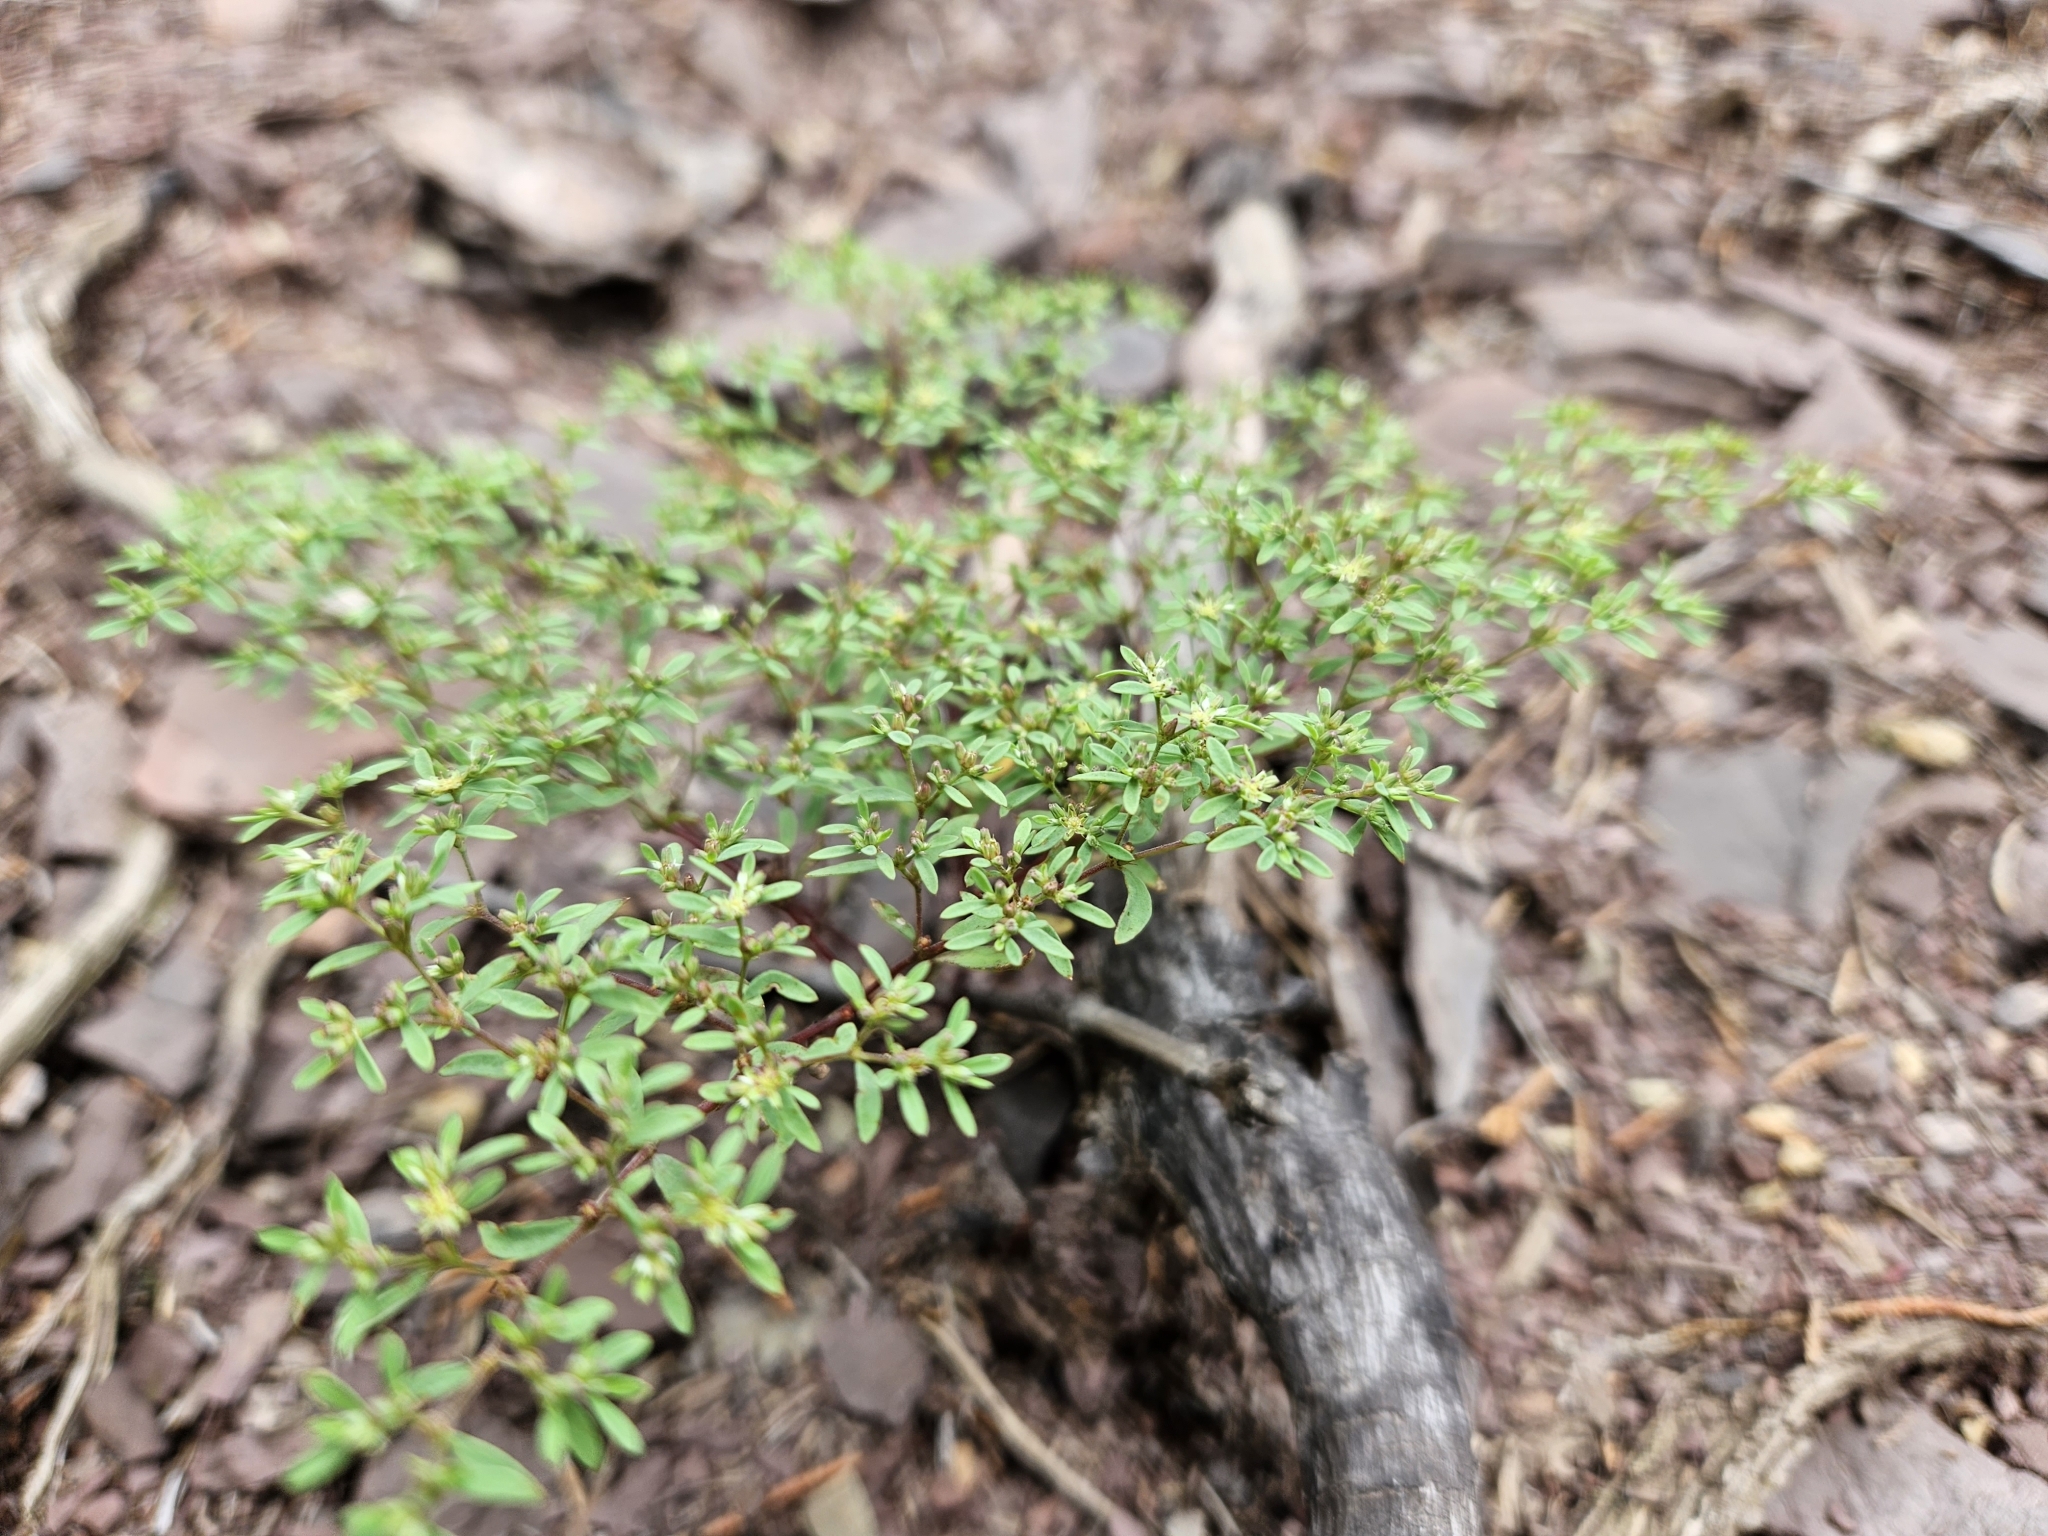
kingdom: Plantae
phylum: Tracheophyta
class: Magnoliopsida
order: Caryophyllales
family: Caryophyllaceae
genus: Paronychia
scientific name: Paronychia
